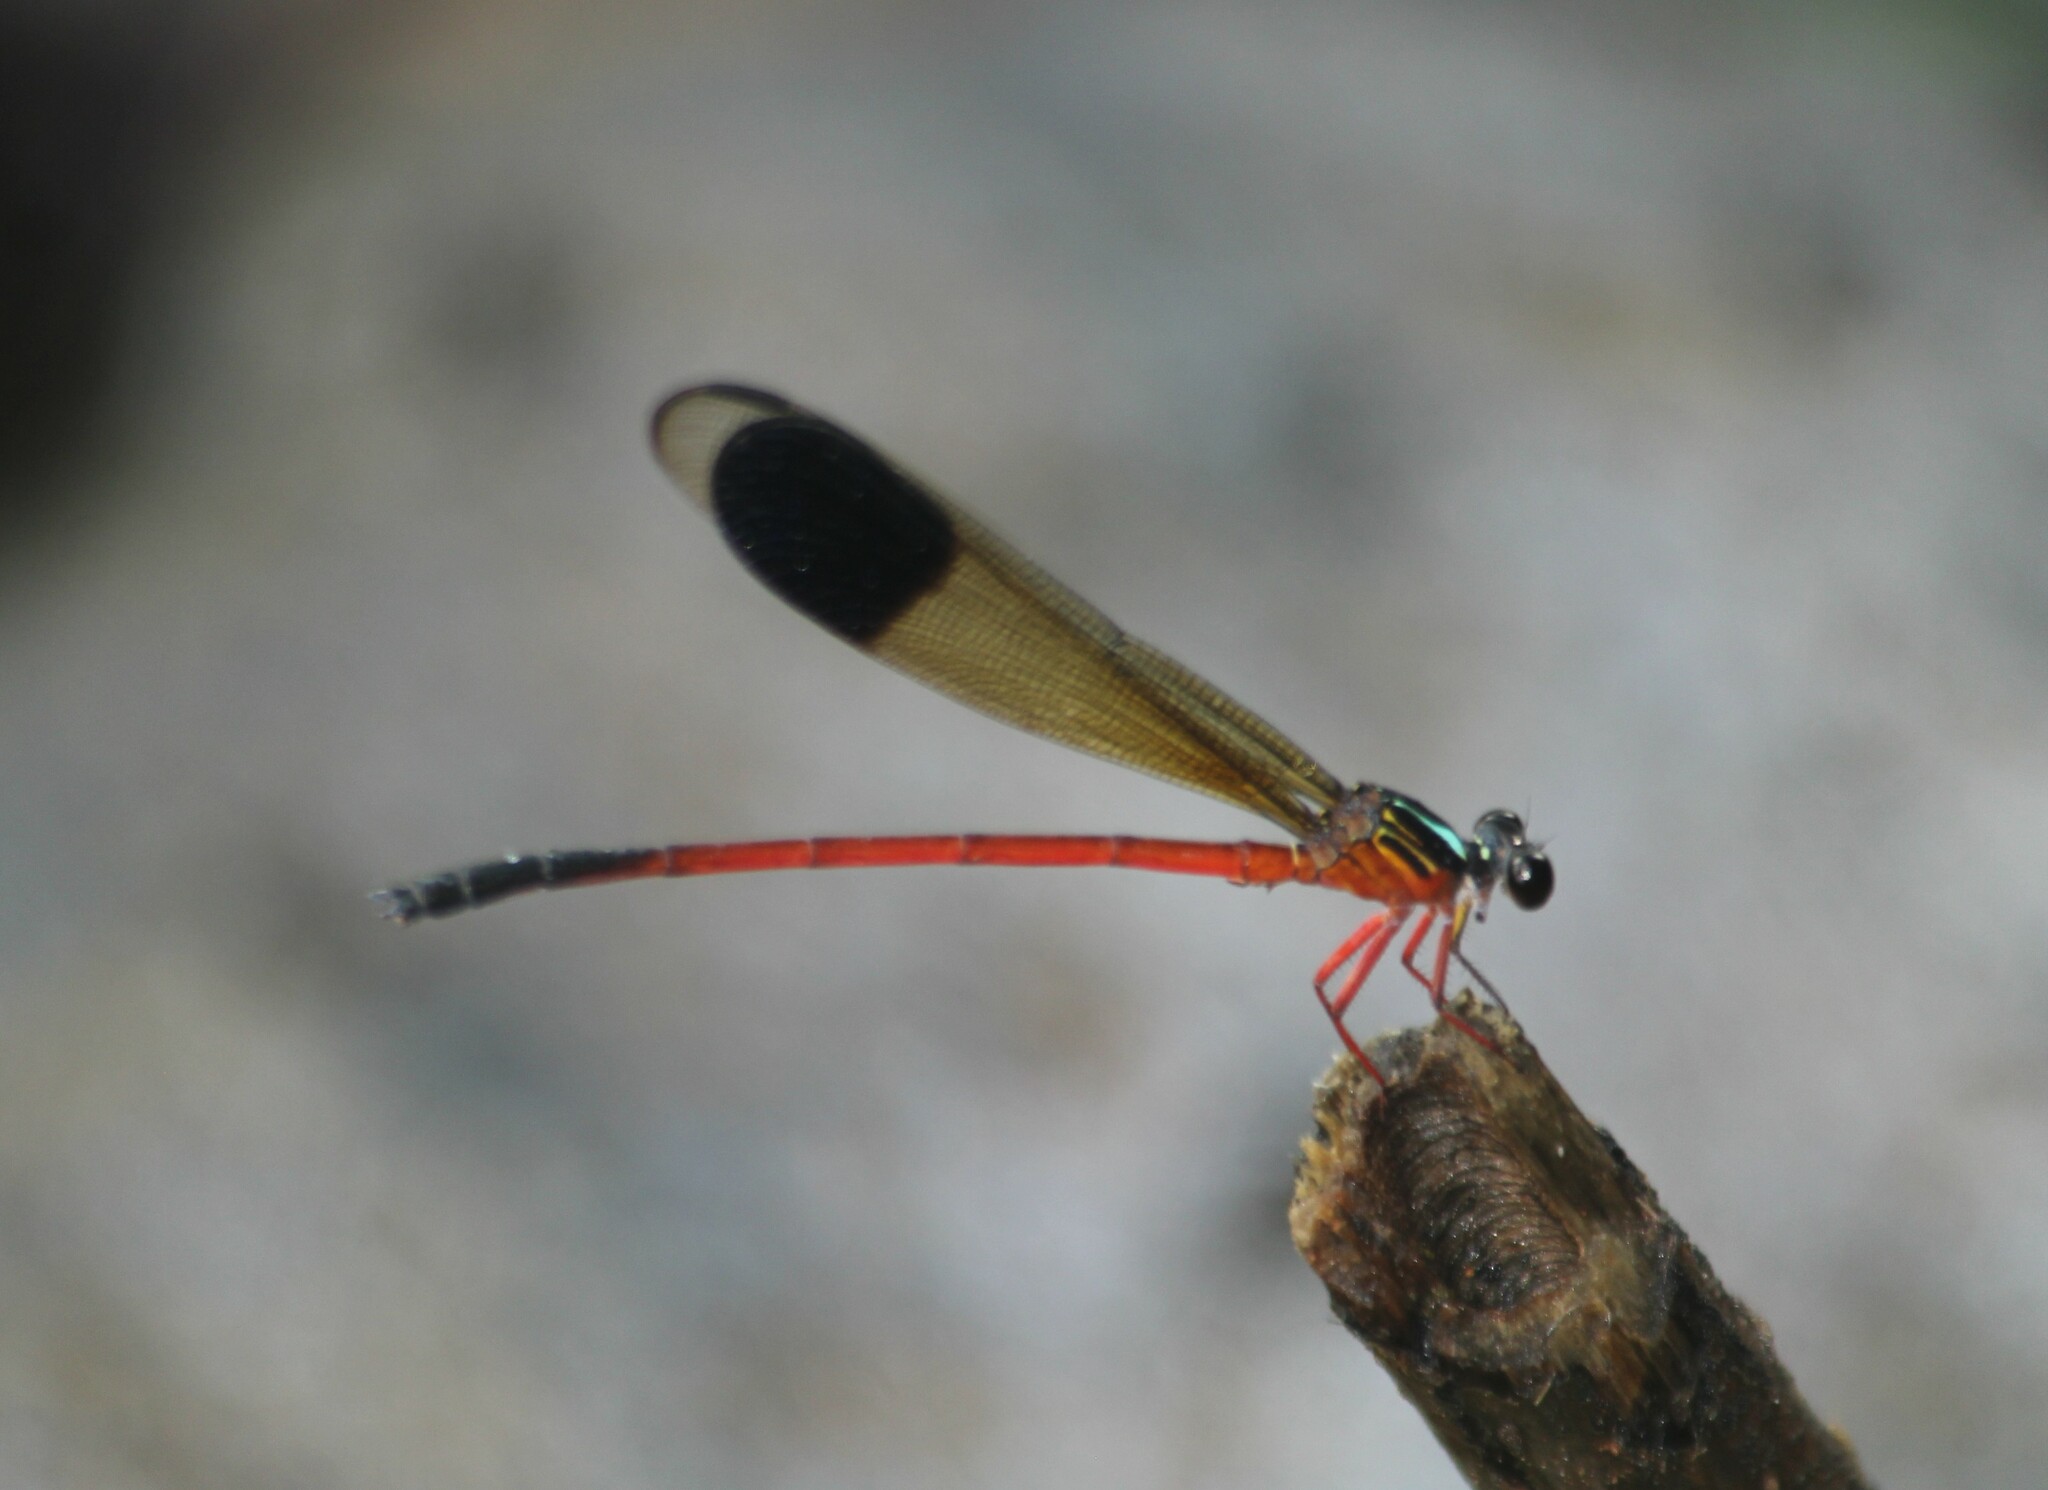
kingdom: Animalia
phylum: Arthropoda
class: Insecta
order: Odonata
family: Euphaeidae
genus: Euphaea
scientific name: Euphaea fraseri
